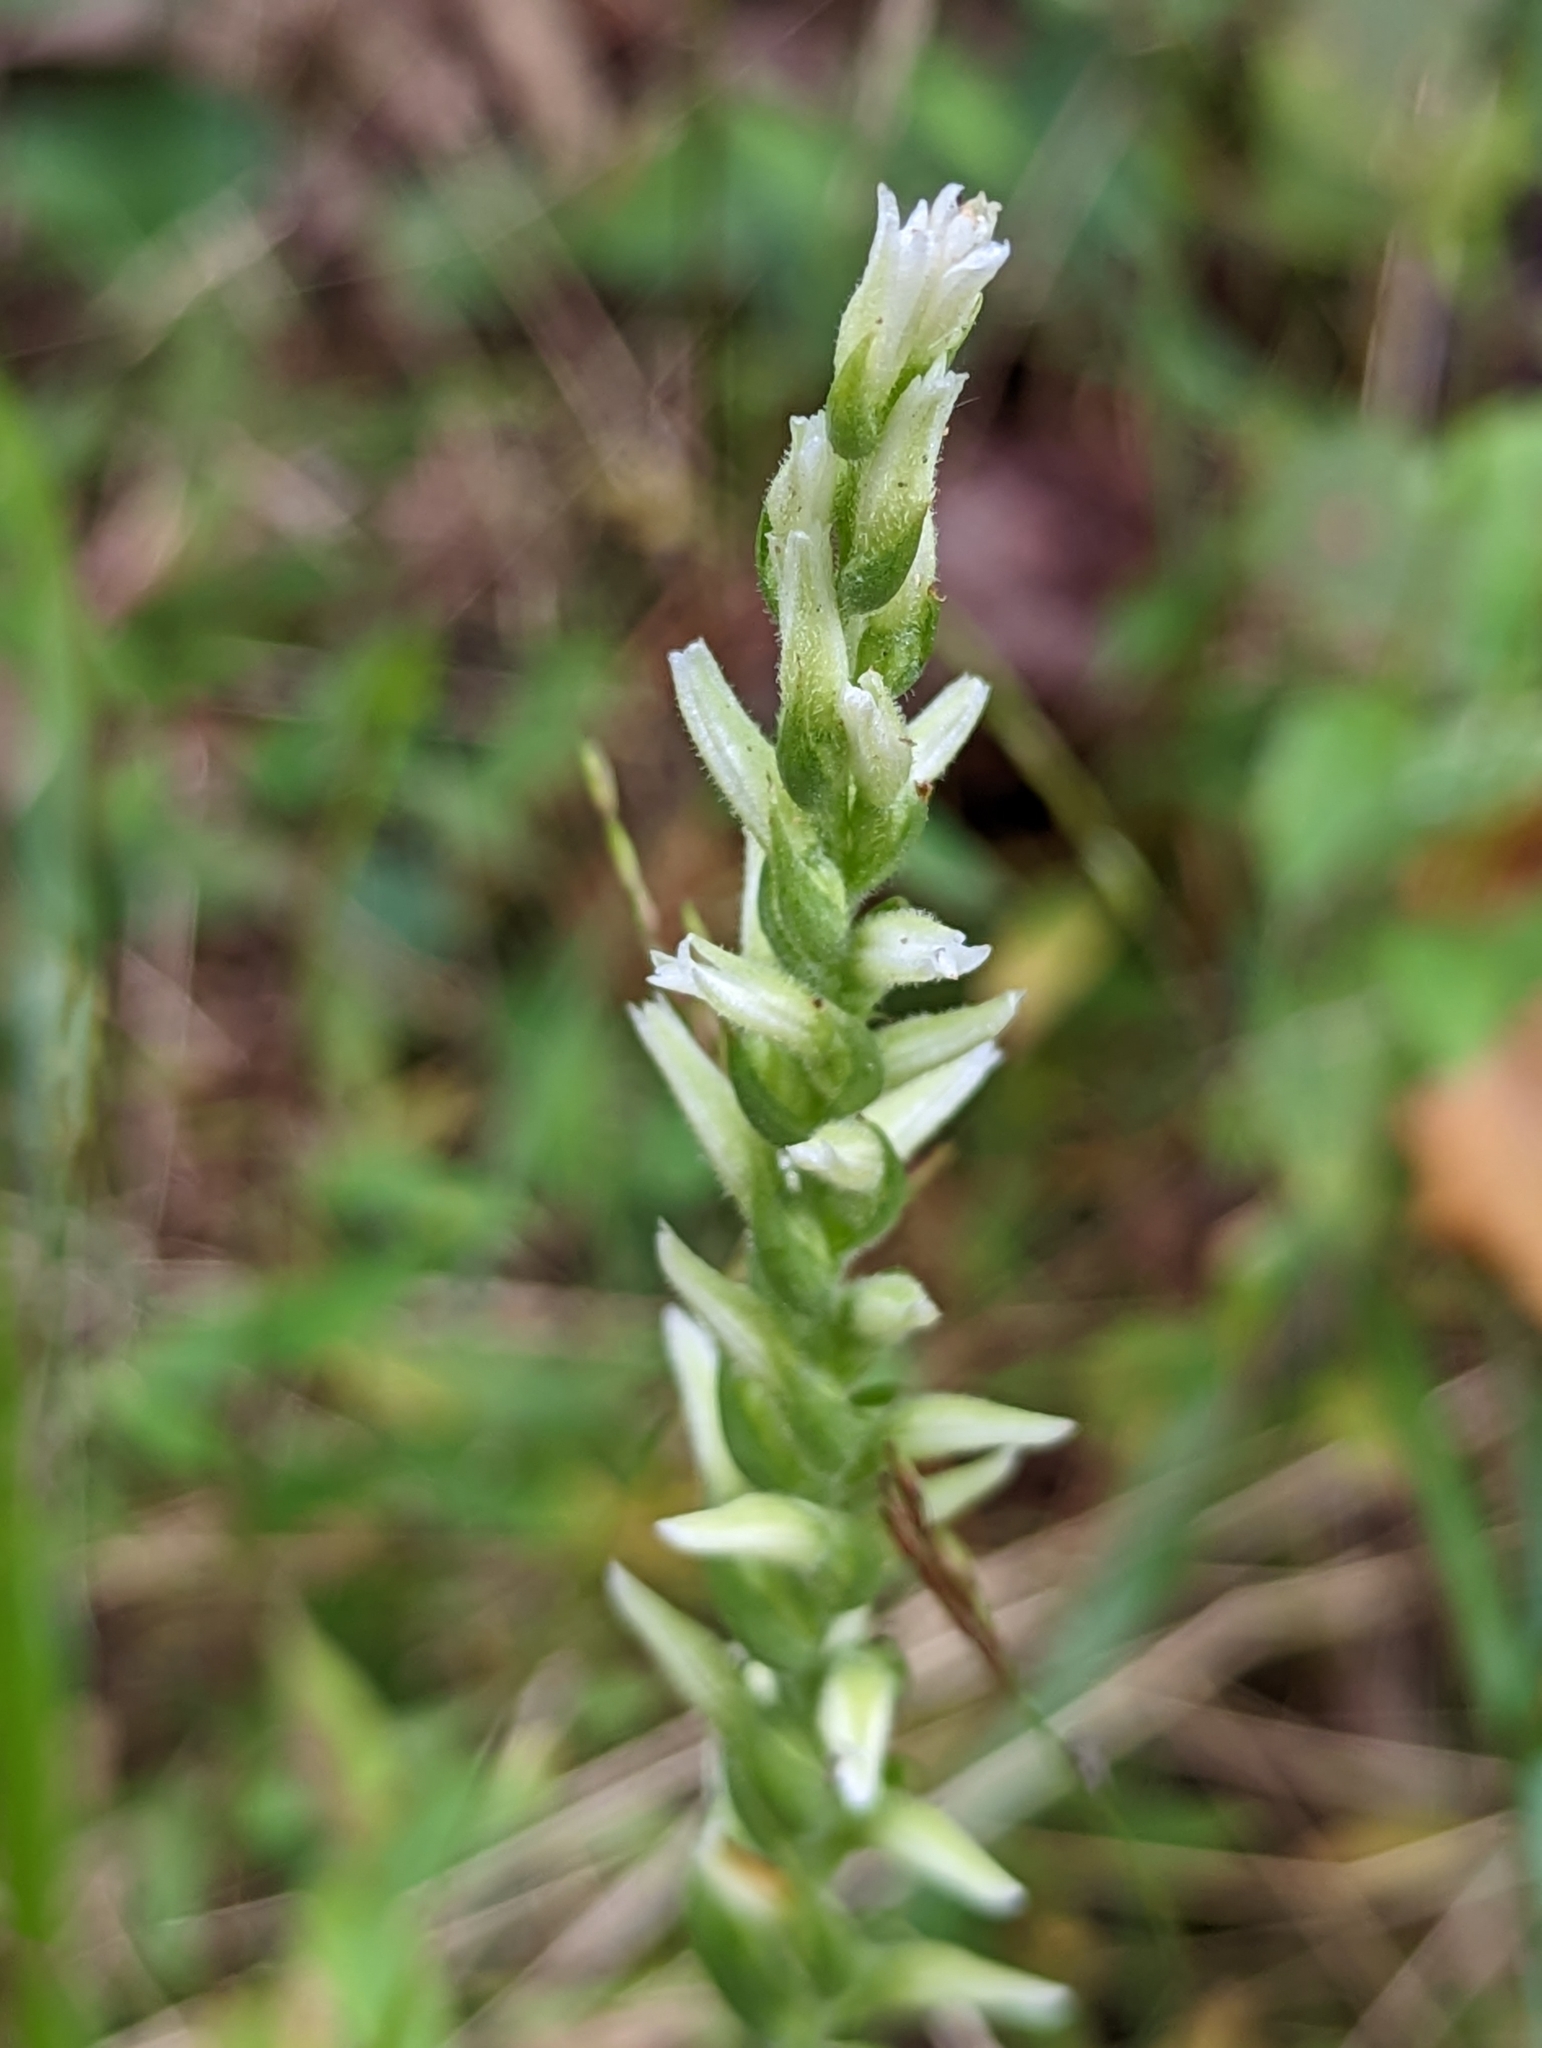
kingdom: Plantae
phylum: Tracheophyta
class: Liliopsida
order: Asparagales
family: Orchidaceae
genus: Spiranthes
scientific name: Spiranthes cernua
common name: Dropping ladies'-tresses
